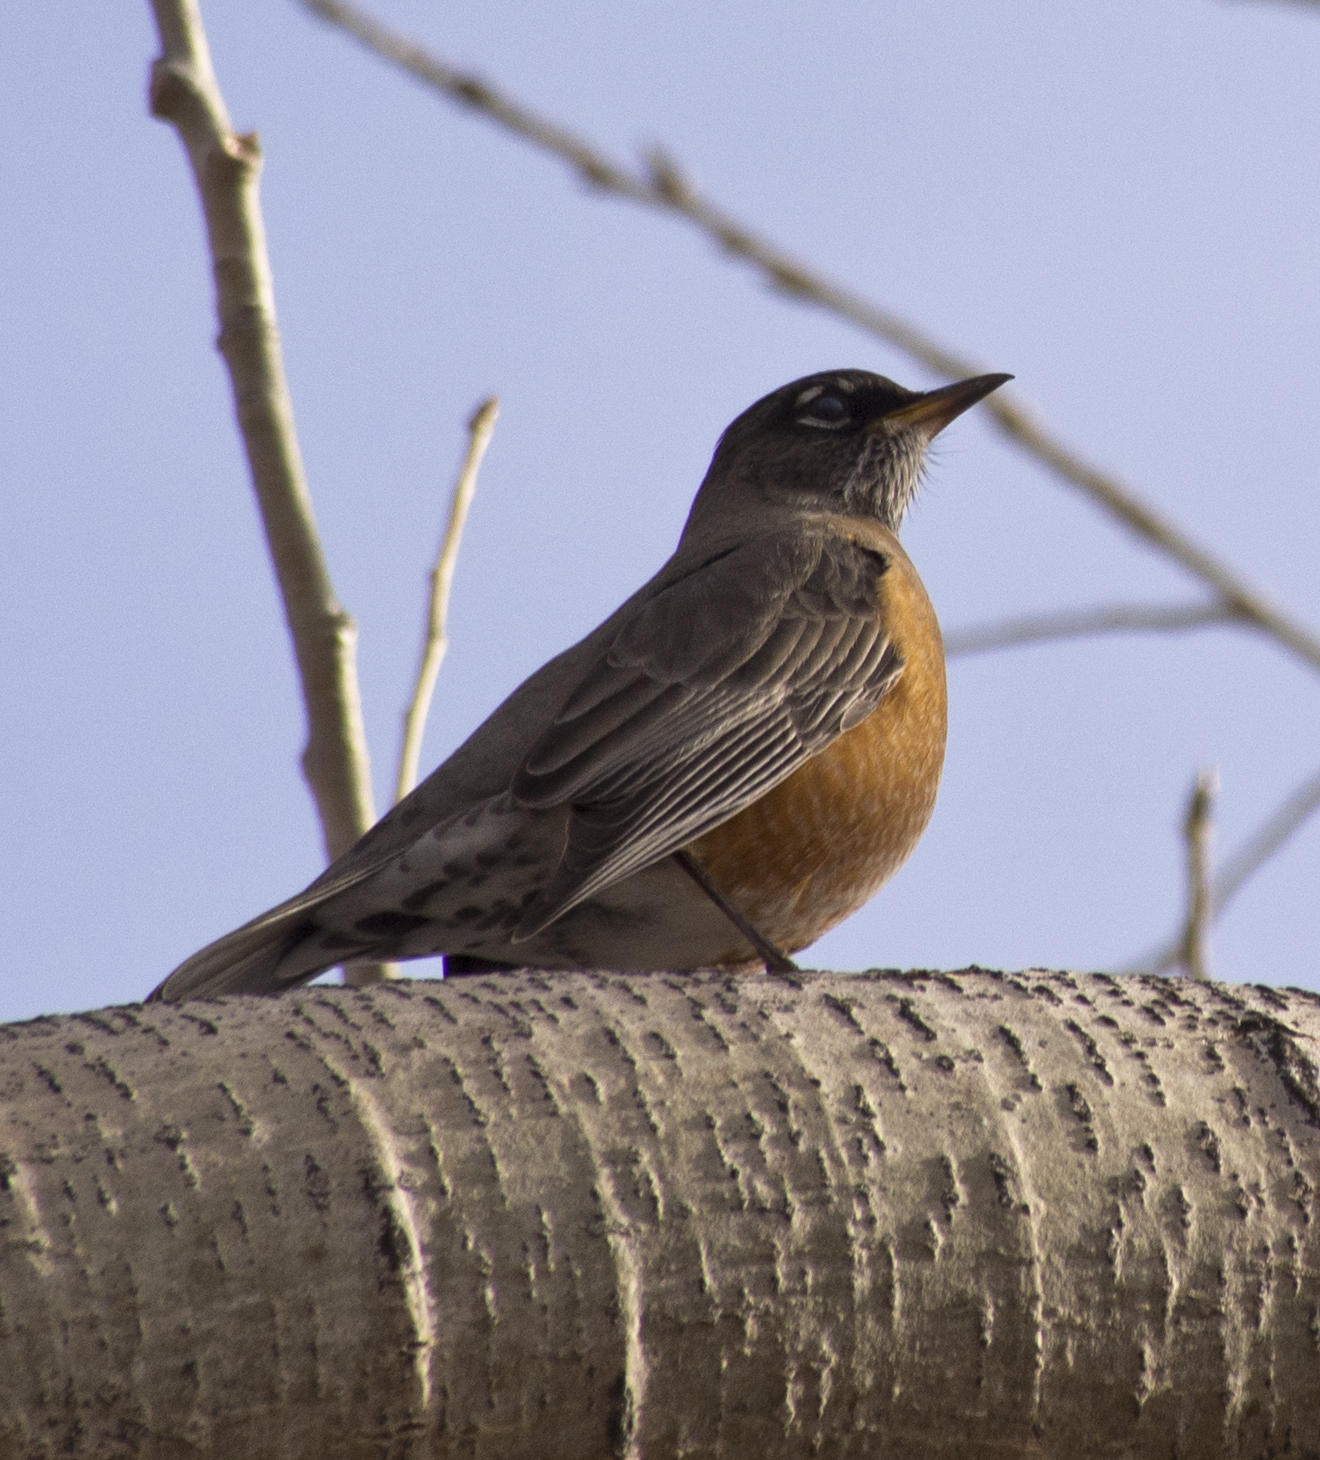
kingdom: Animalia
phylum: Chordata
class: Aves
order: Passeriformes
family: Turdidae
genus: Turdus
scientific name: Turdus migratorius
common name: American robin
